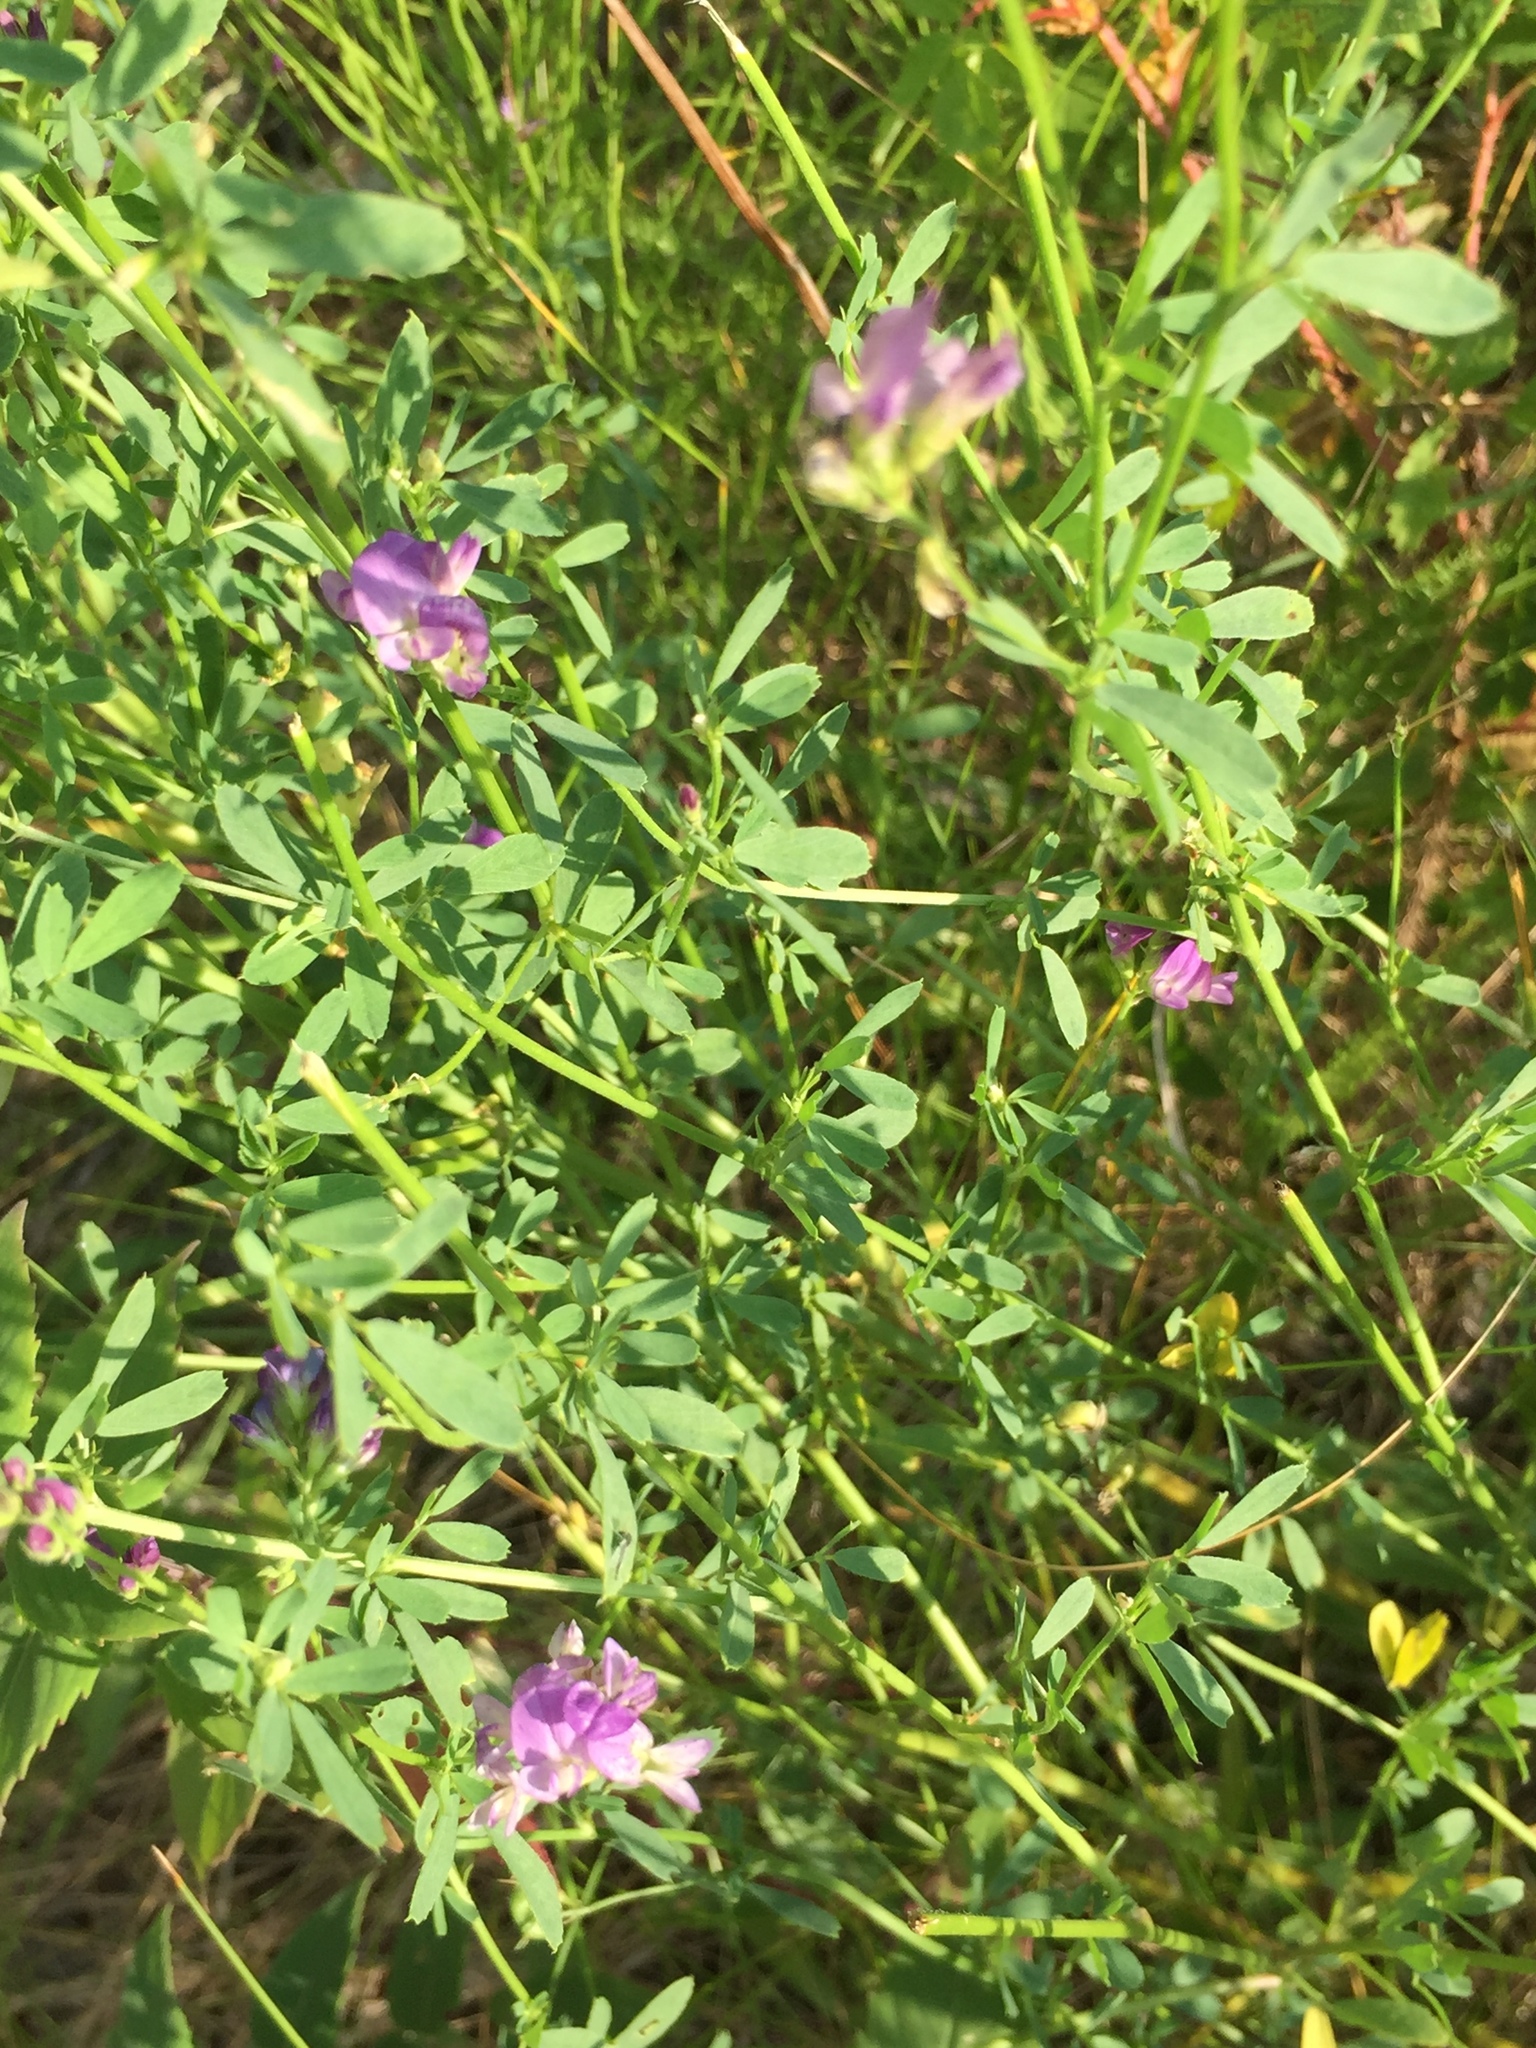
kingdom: Plantae
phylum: Tracheophyta
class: Magnoliopsida
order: Fabales
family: Fabaceae
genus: Medicago
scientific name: Medicago sativa
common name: Alfalfa
